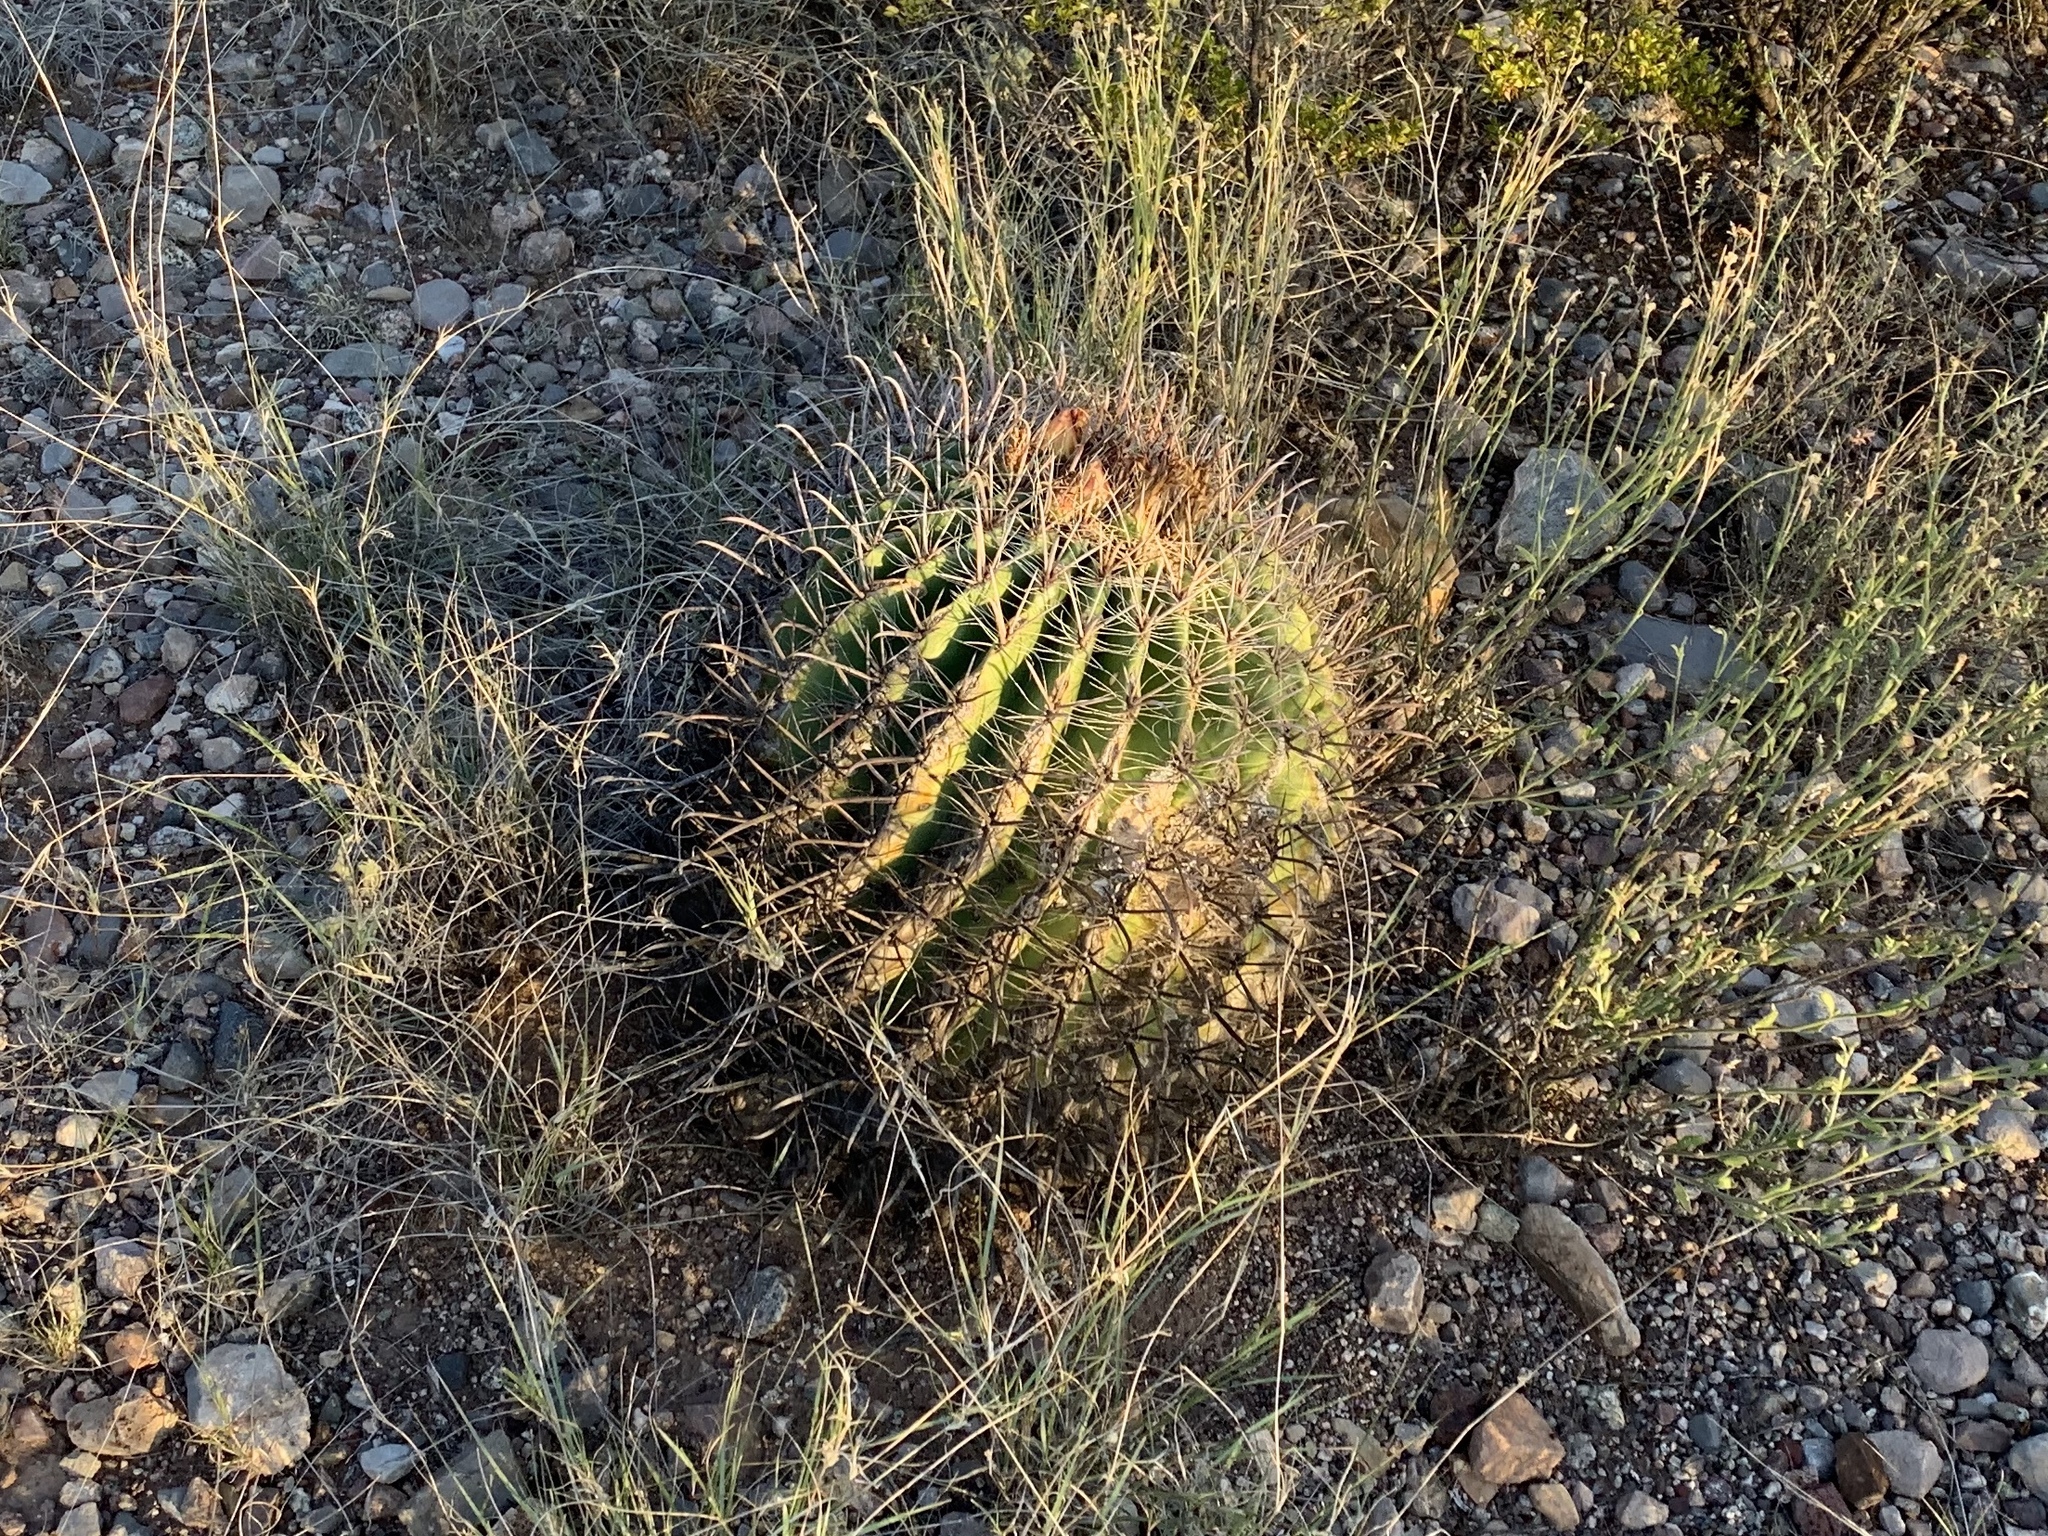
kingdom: Plantae
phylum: Tracheophyta
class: Magnoliopsida
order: Caryophyllales
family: Cactaceae
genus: Ferocactus
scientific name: Ferocactus wislizeni
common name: Candy barrel cactus
